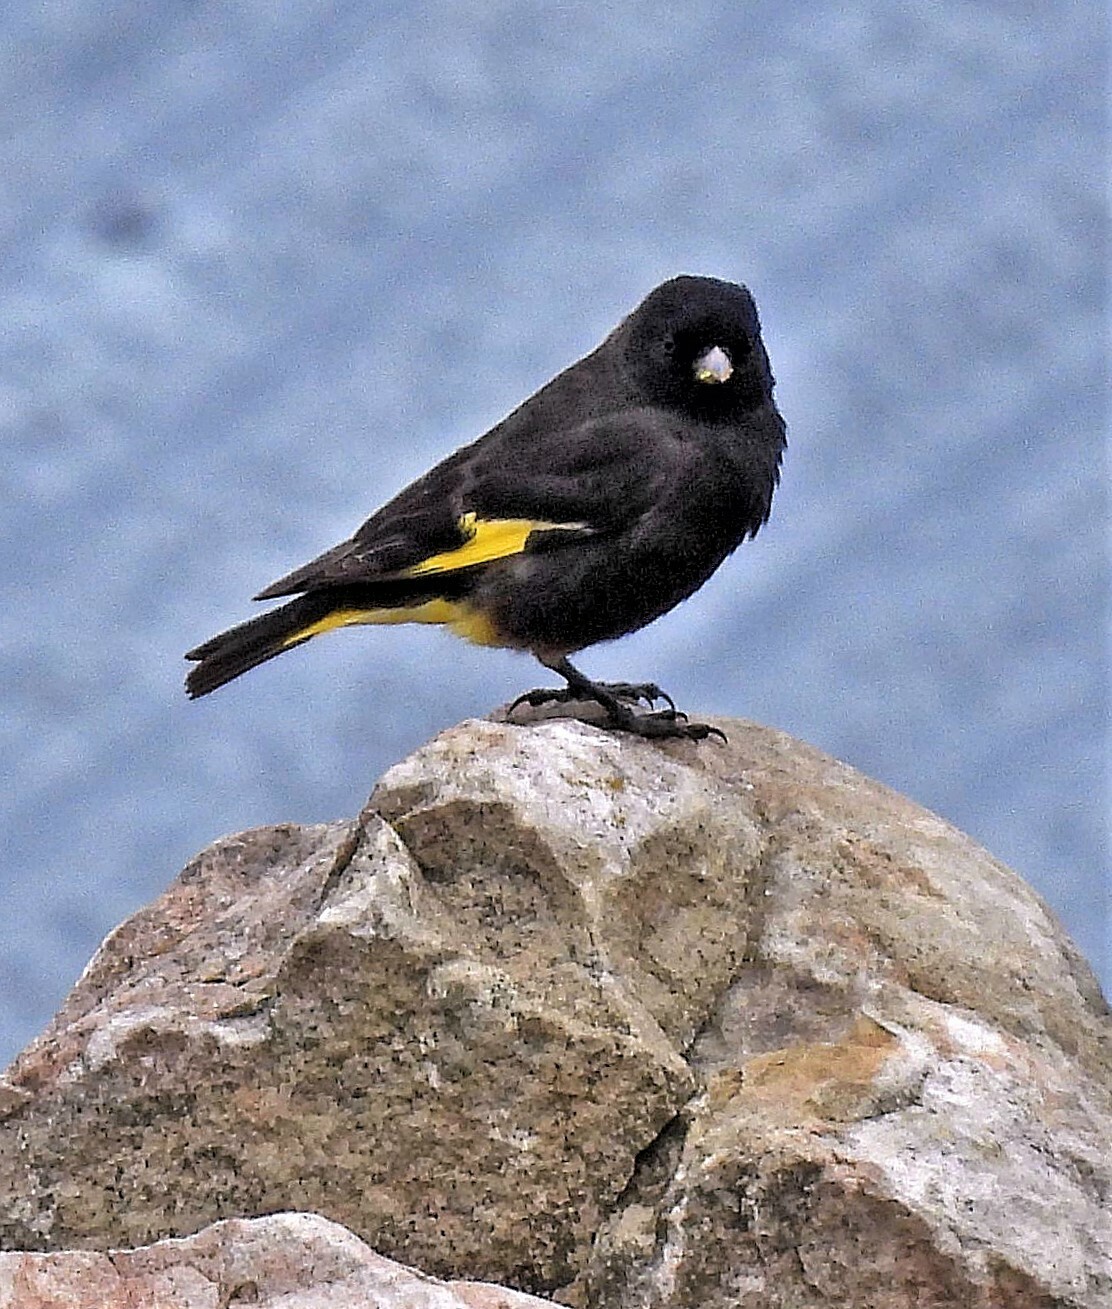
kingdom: Animalia
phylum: Chordata
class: Aves
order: Passeriformes
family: Fringillidae
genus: Spinus
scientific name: Spinus atratus
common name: Black siskin
